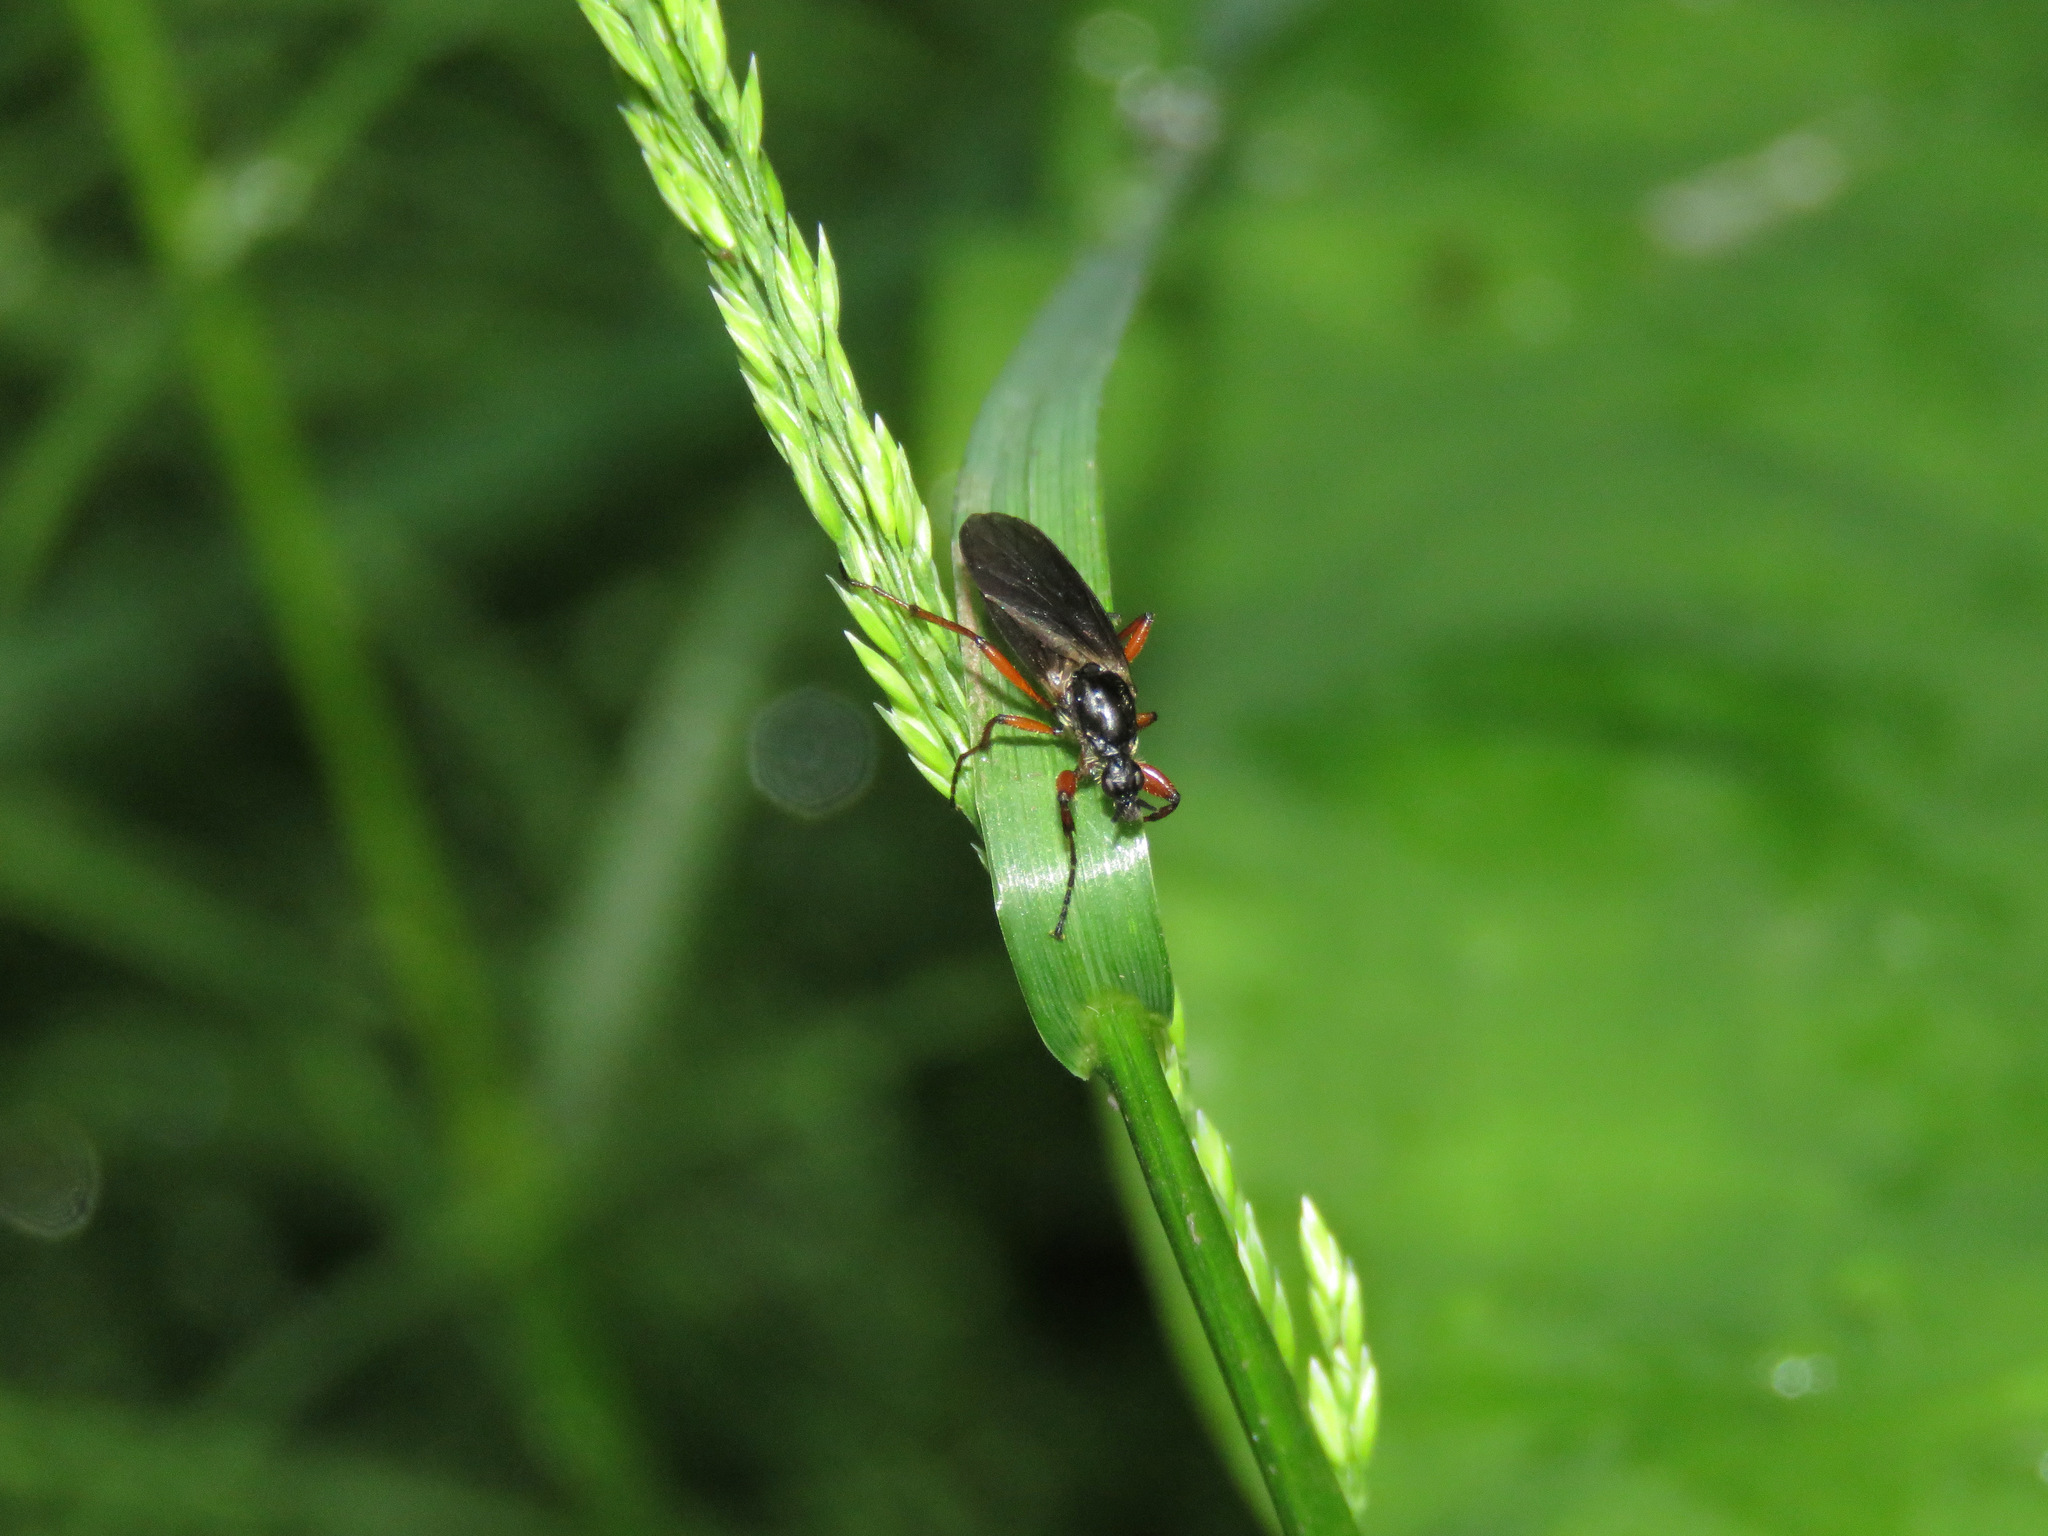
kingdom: Animalia
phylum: Arthropoda
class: Insecta
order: Diptera
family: Bibionidae
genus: Bibio
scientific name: Bibio
